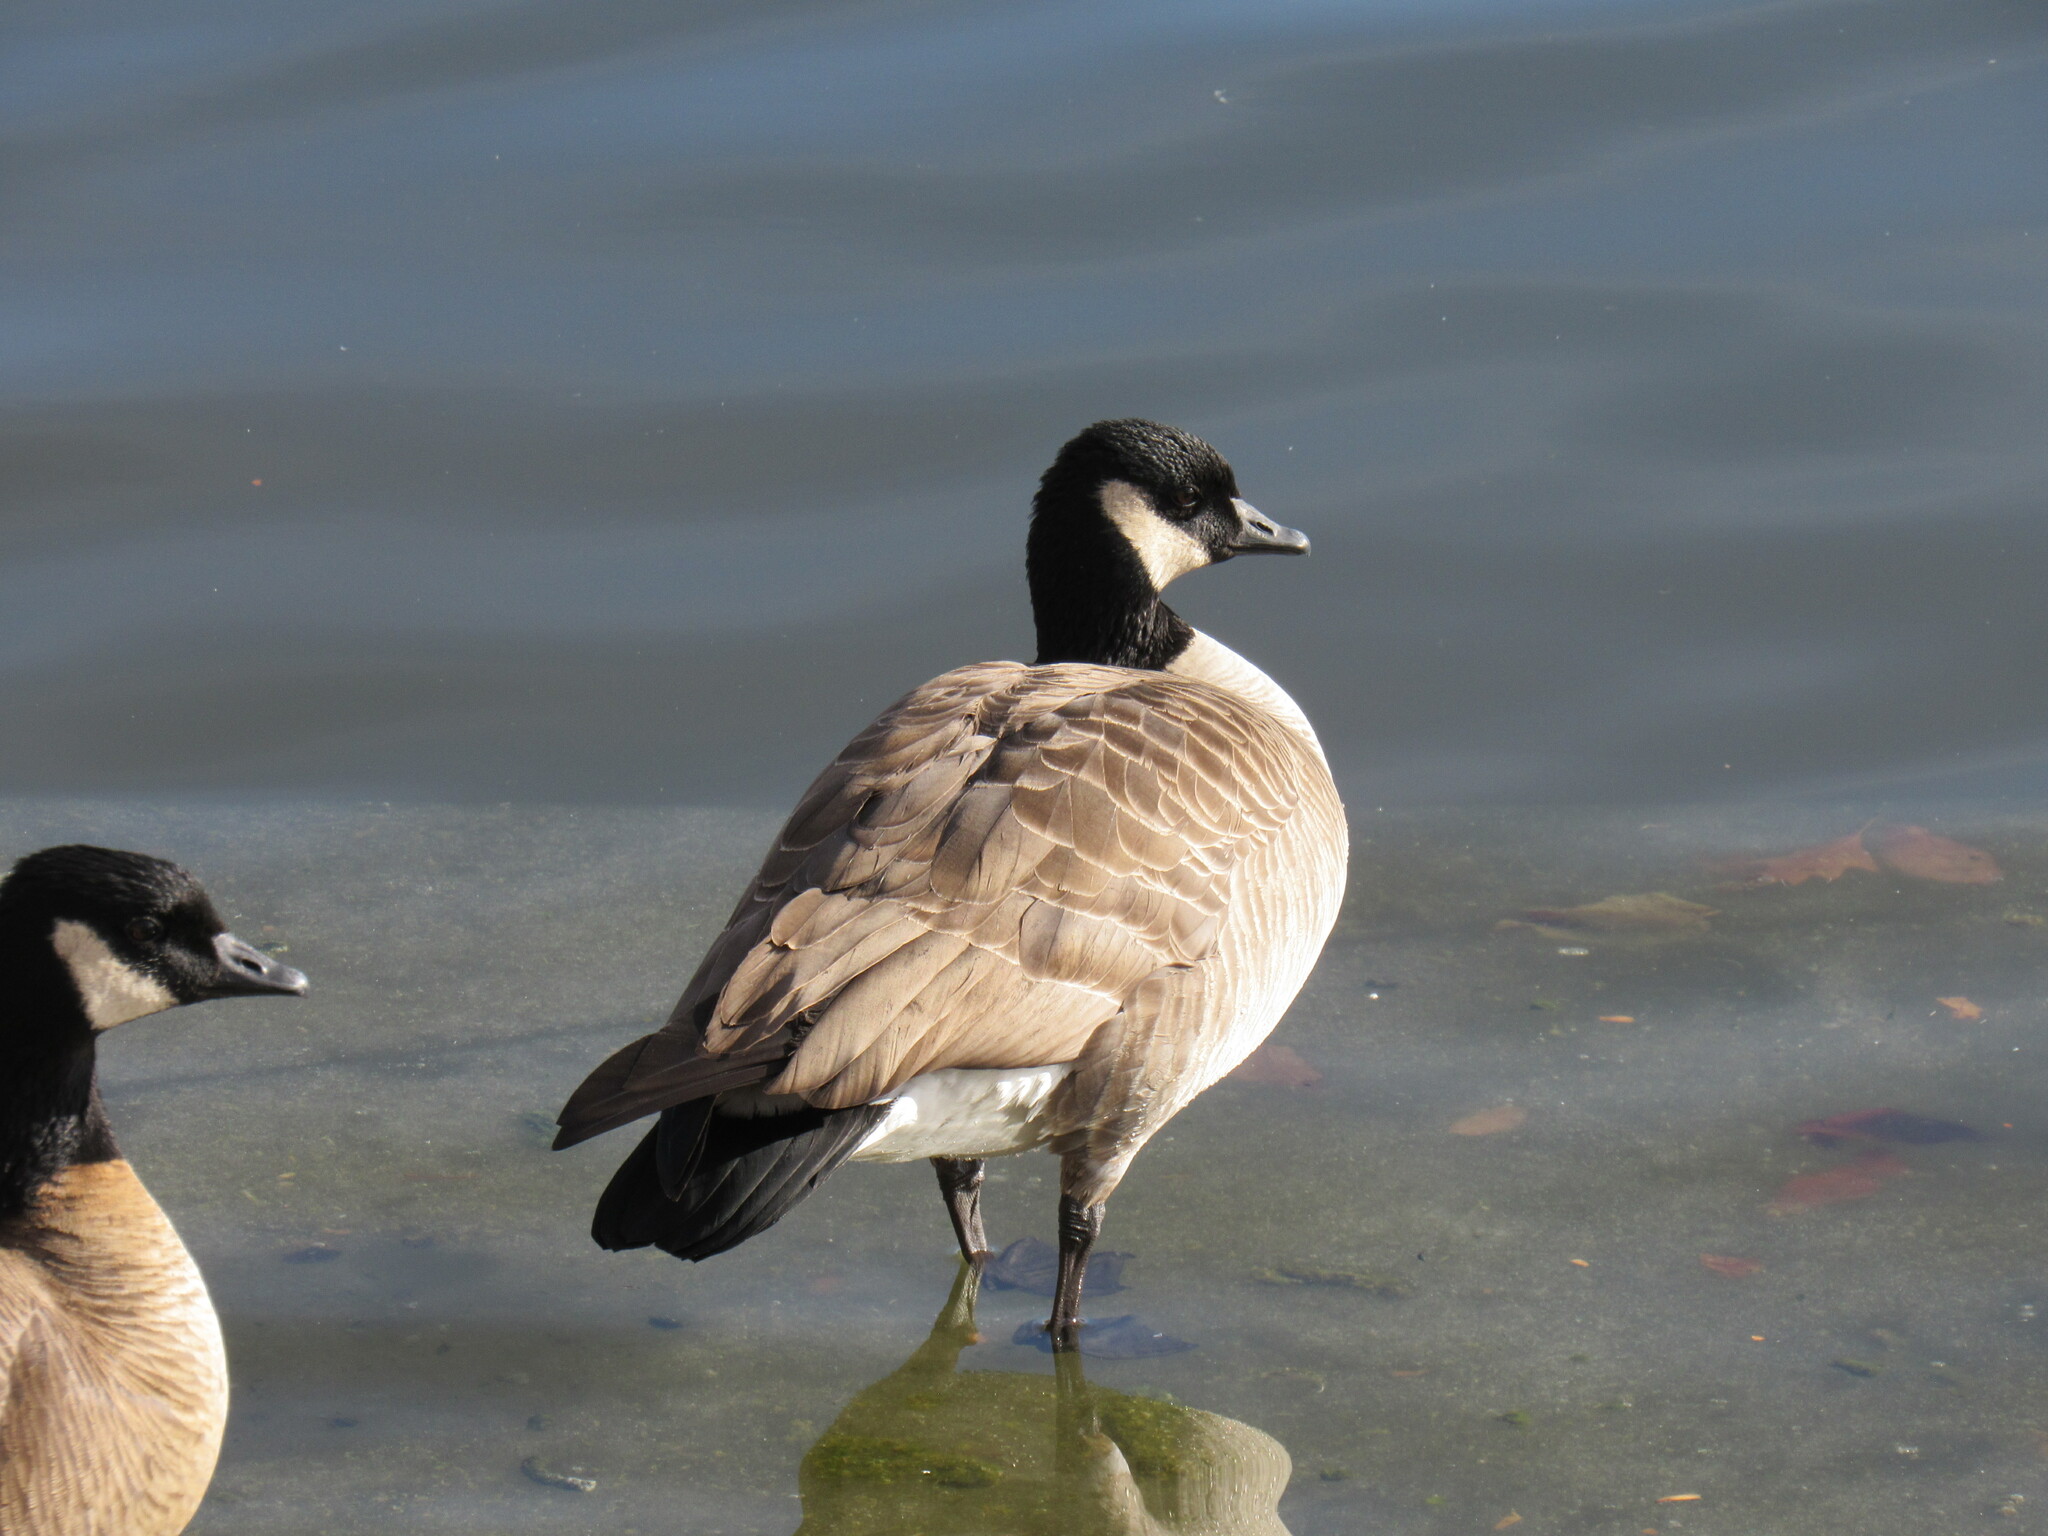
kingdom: Animalia
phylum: Chordata
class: Aves
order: Anseriformes
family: Anatidae
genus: Branta
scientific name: Branta hutchinsii
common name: Cackling goose
